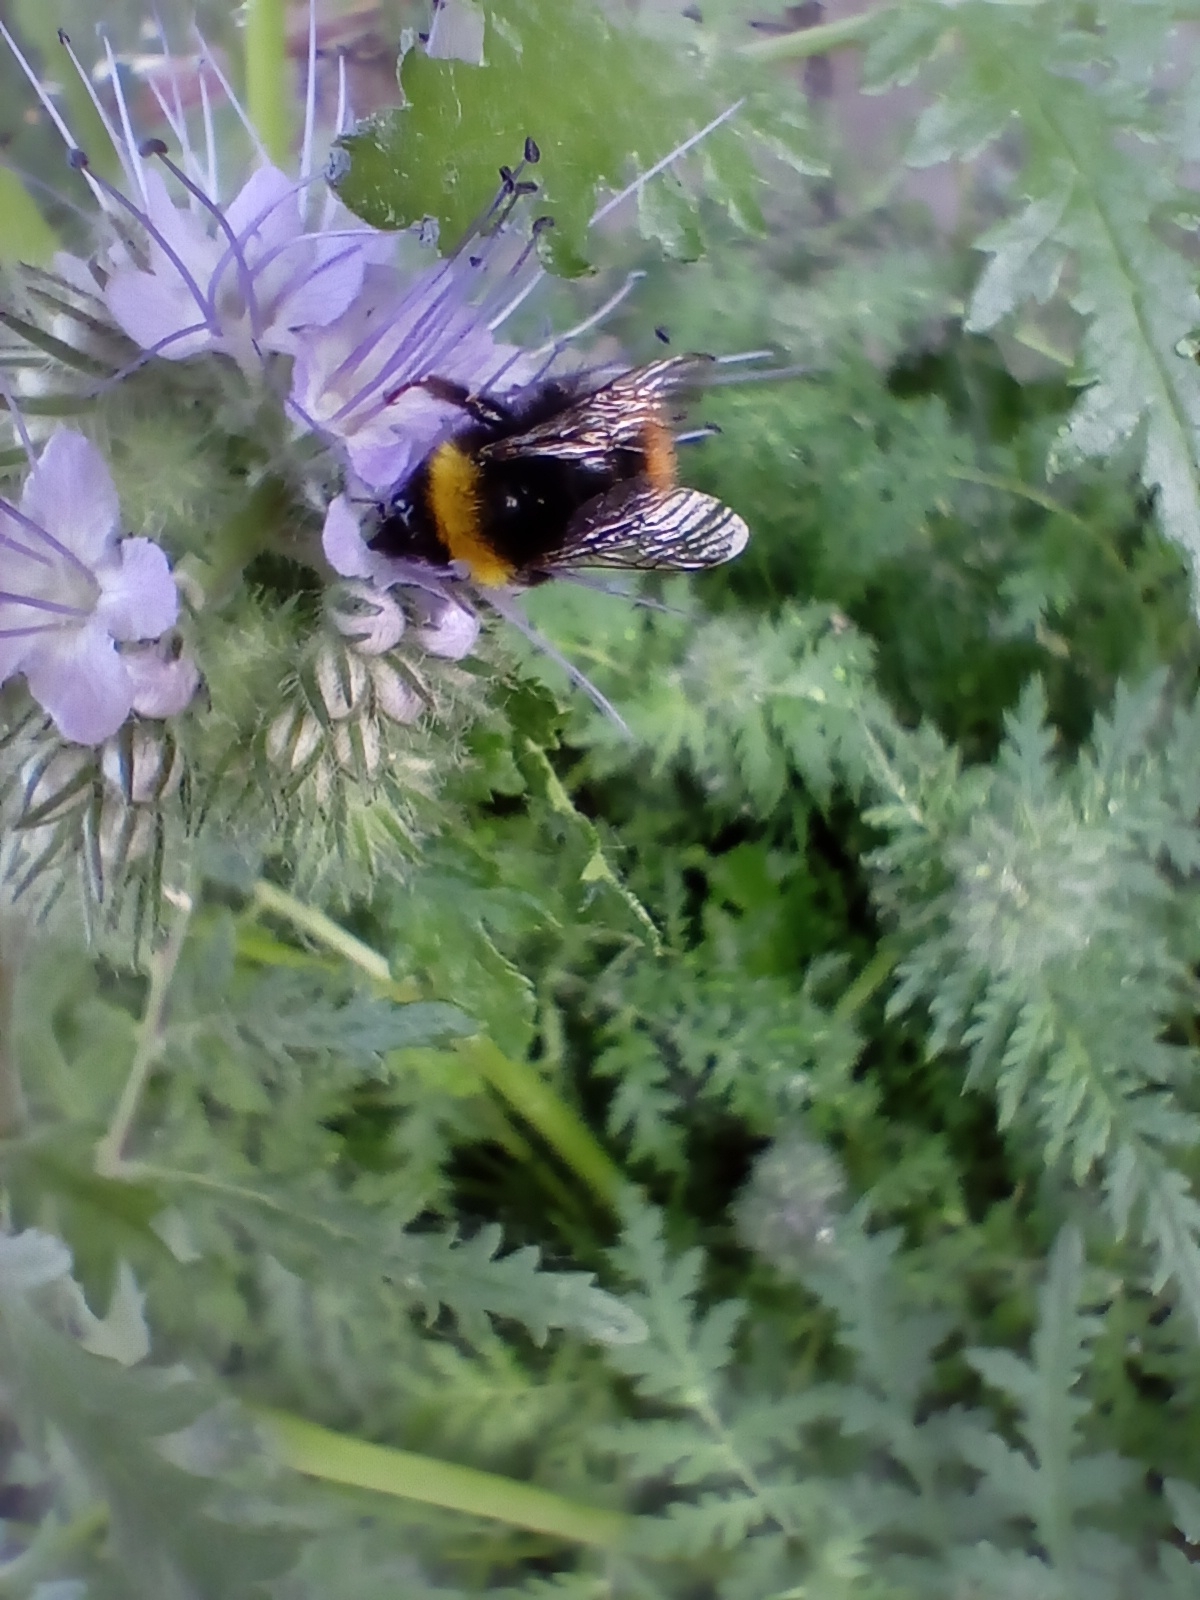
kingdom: Animalia
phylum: Arthropoda
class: Insecta
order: Hymenoptera
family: Apidae
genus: Bombus
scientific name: Bombus pratorum
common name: Early humble-bee
